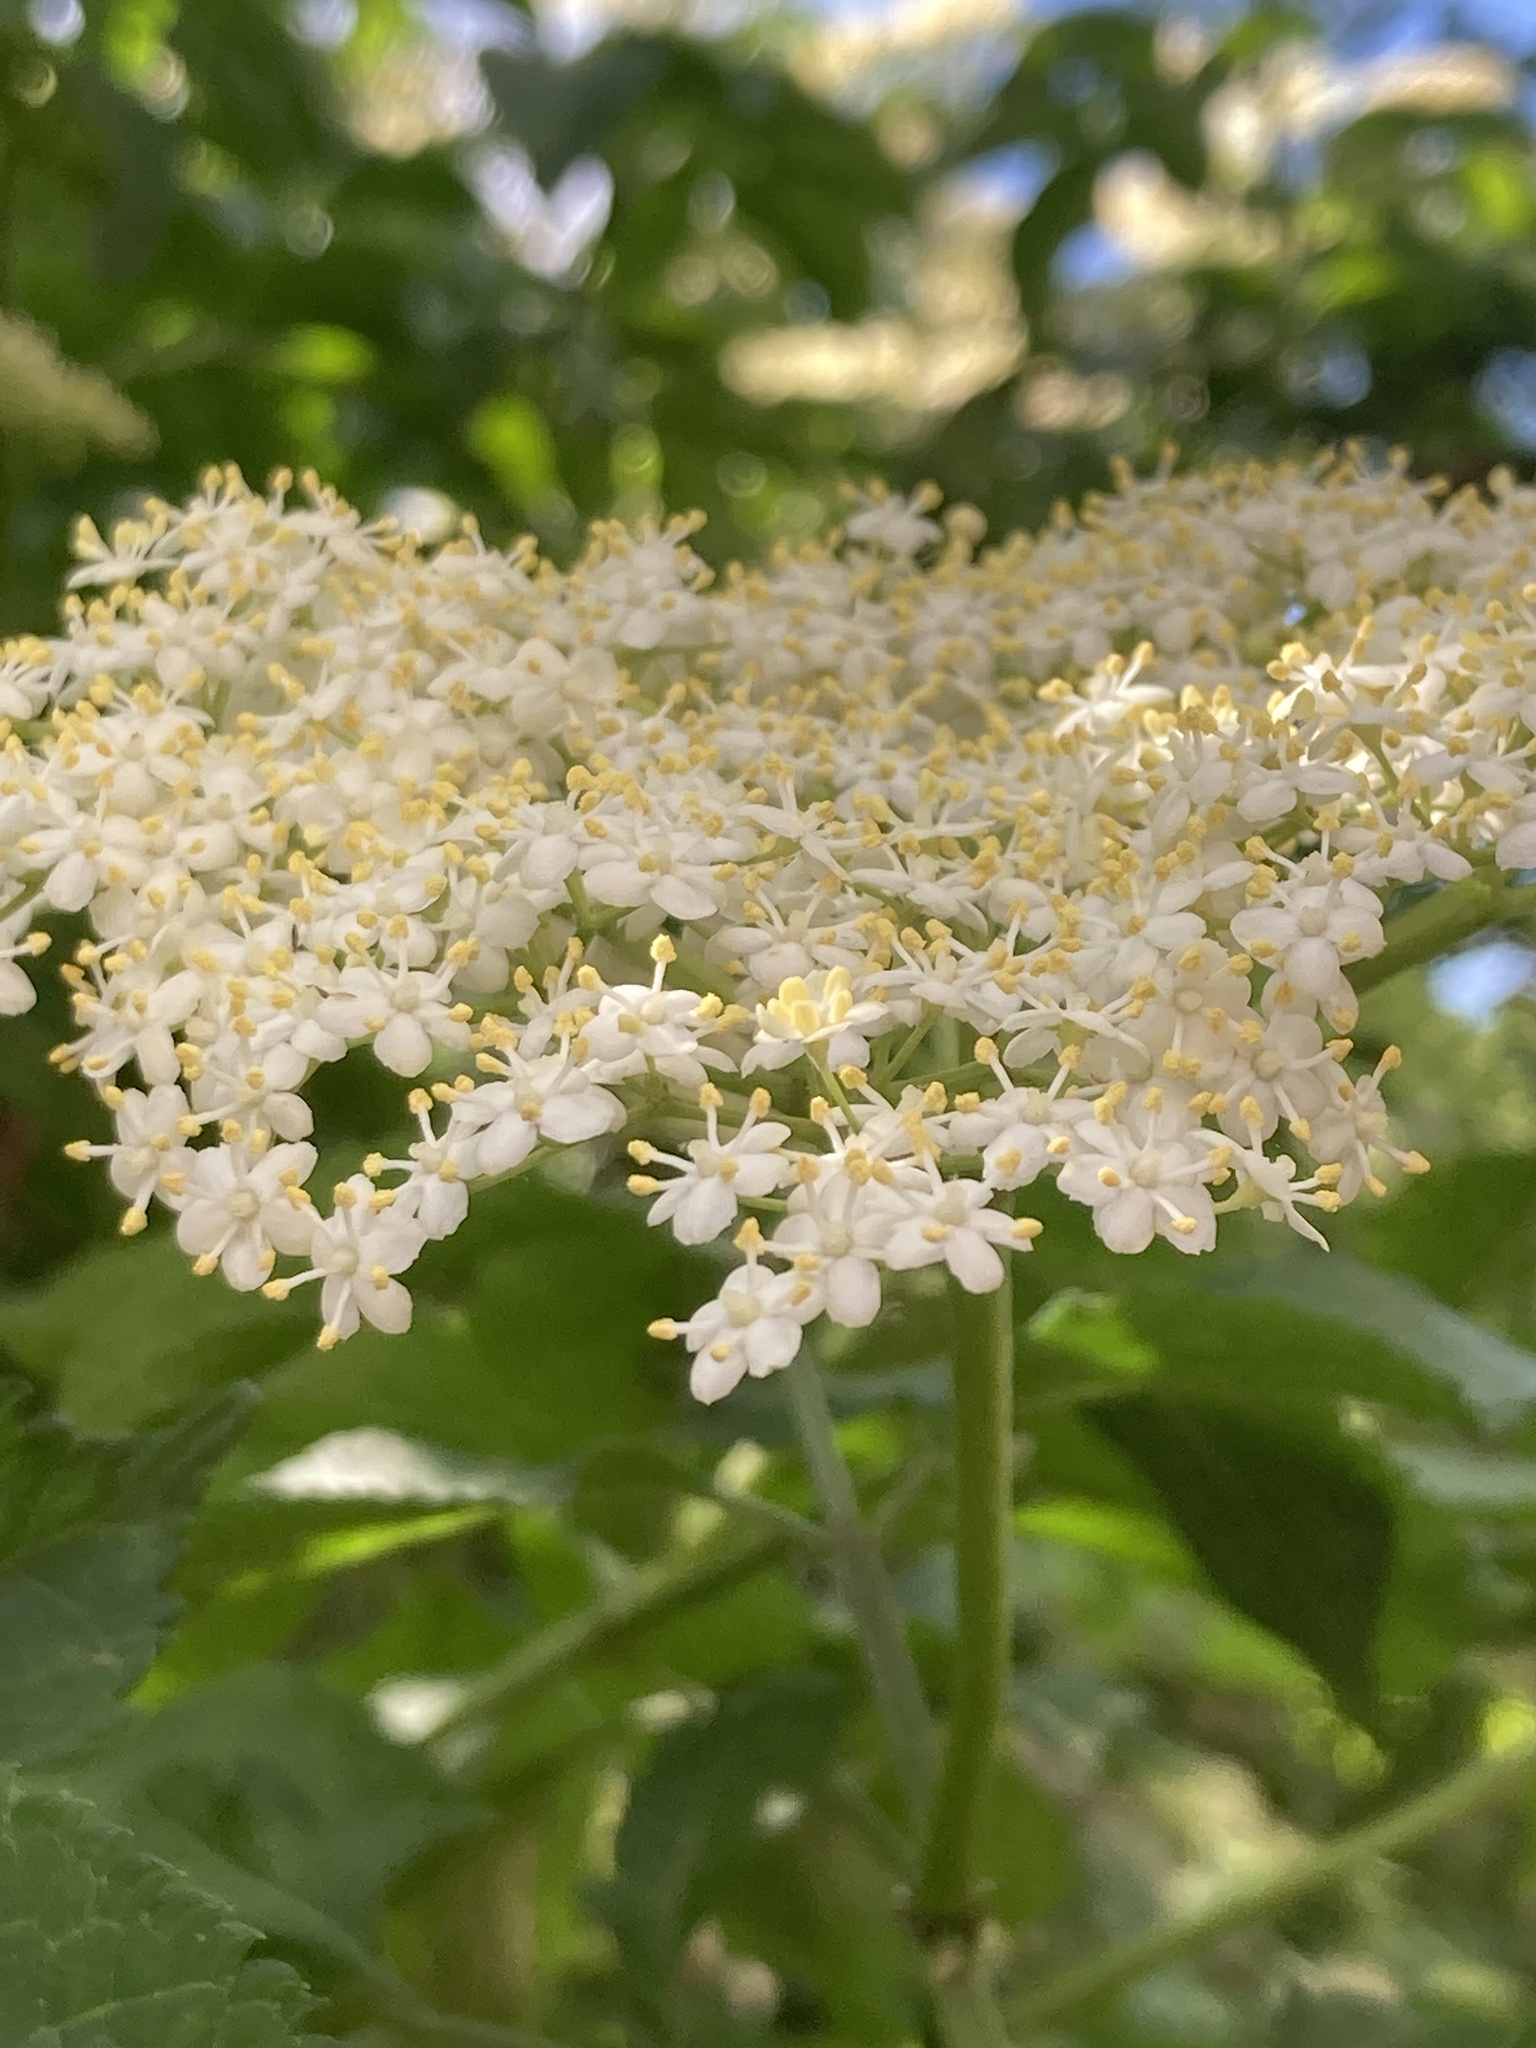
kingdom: Plantae
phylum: Tracheophyta
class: Magnoliopsida
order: Dipsacales
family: Viburnaceae
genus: Sambucus
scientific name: Sambucus nigra
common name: Elder
